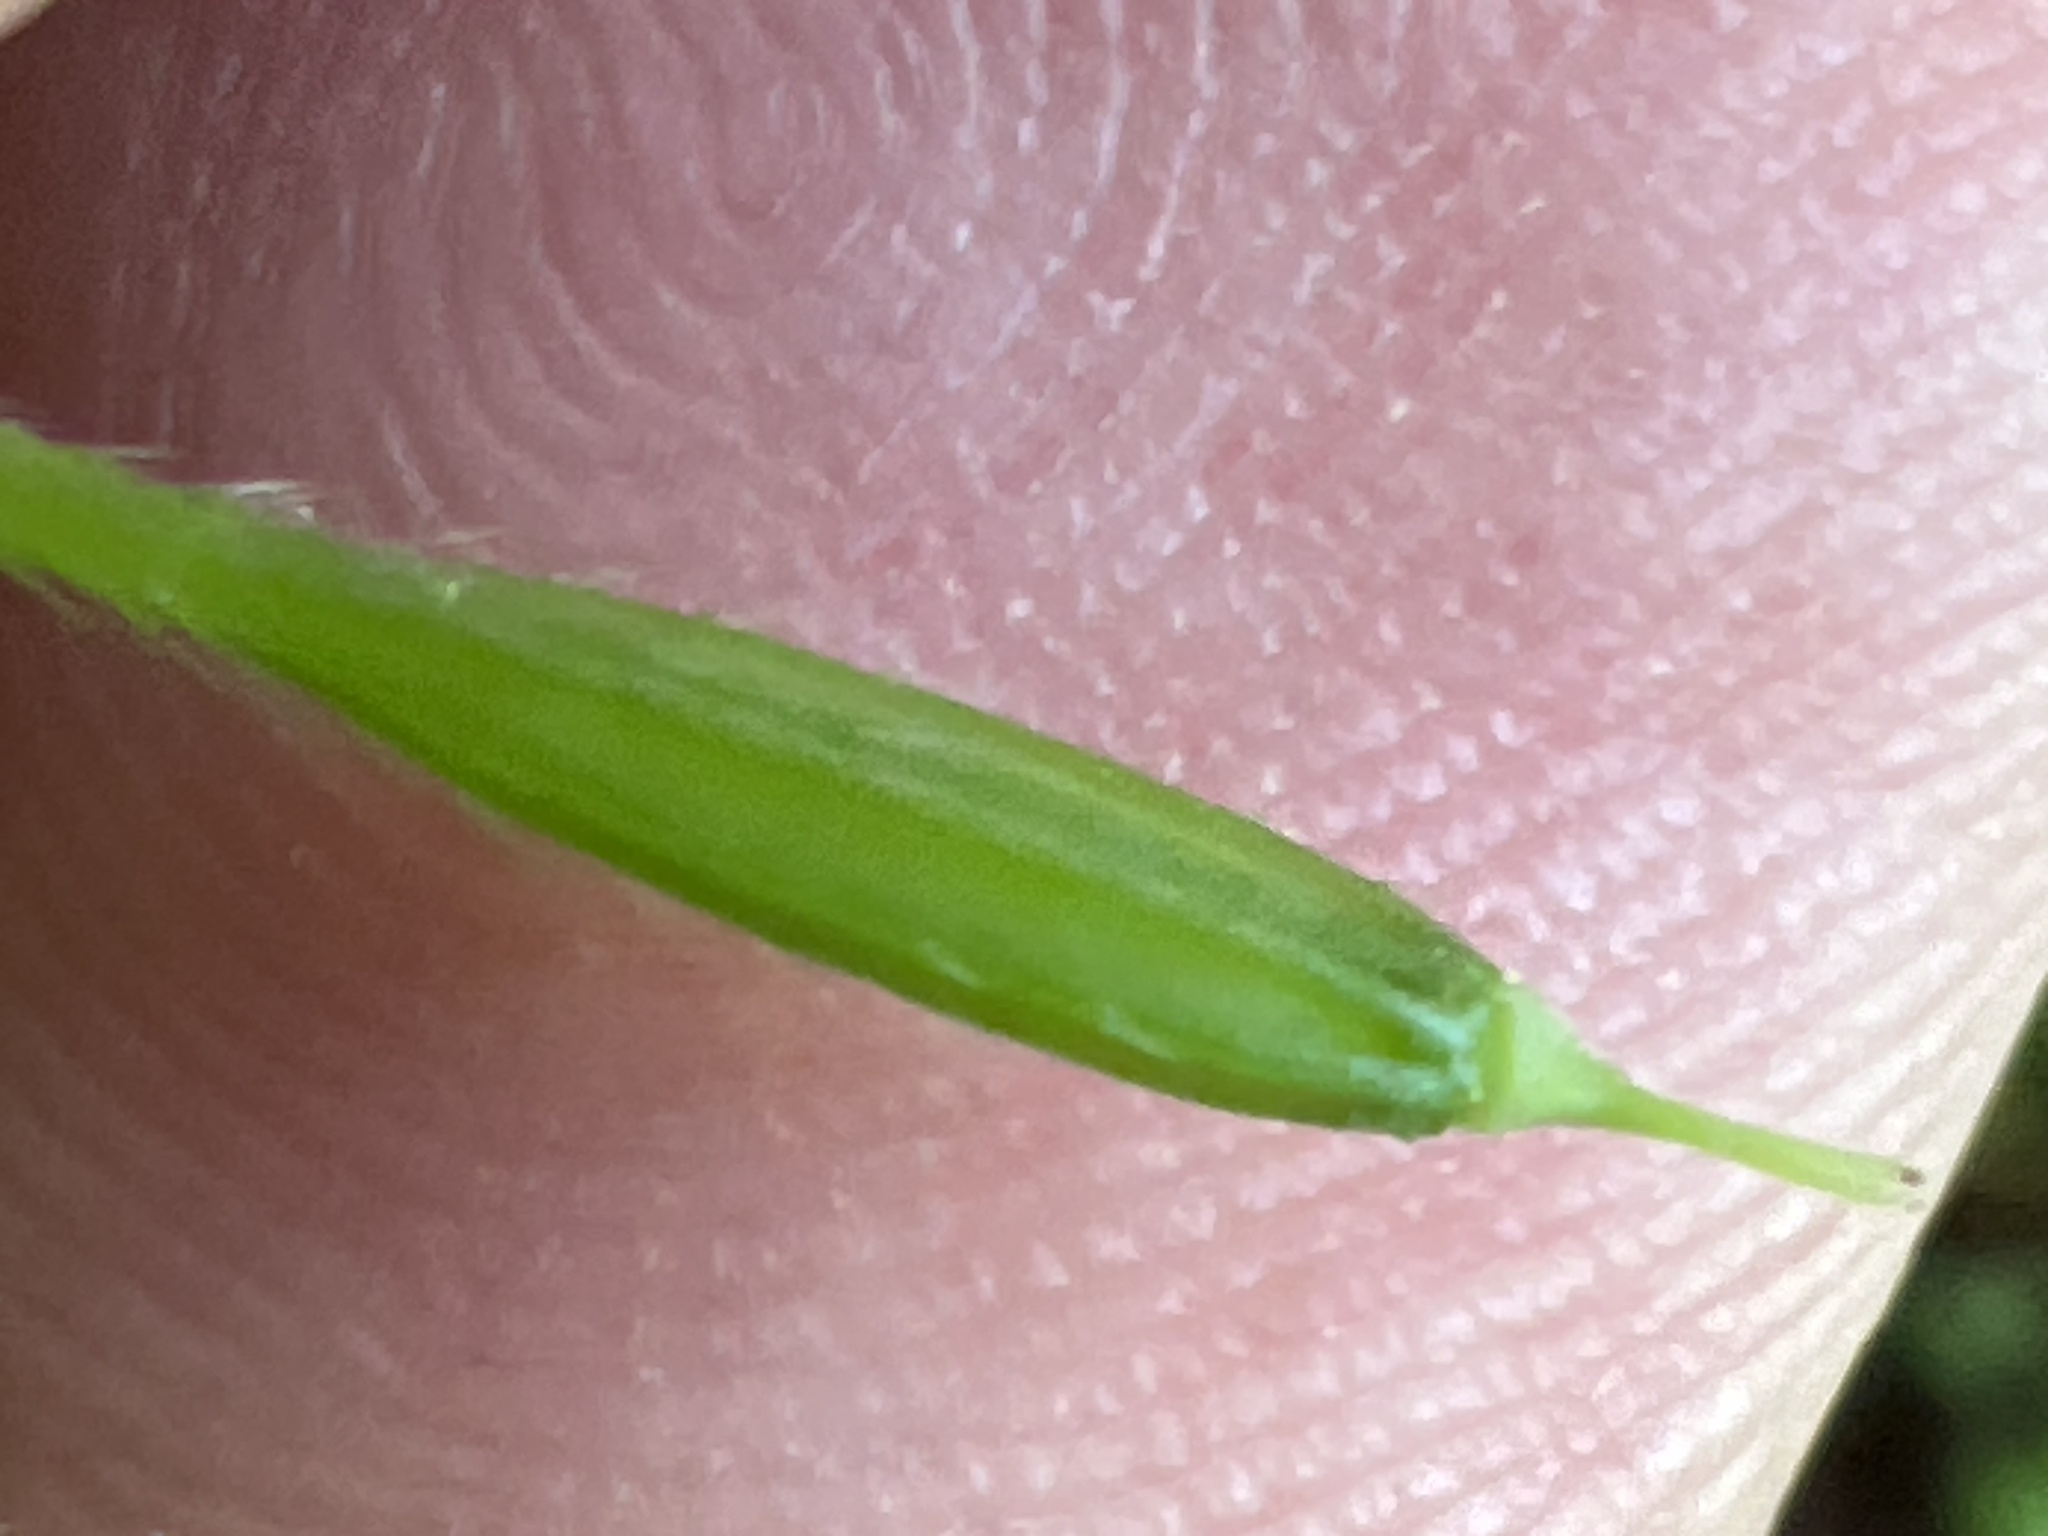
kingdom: Plantae
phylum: Tracheophyta
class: Magnoliopsida
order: Apiales
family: Apiaceae
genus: Osmorhiza
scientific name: Osmorhiza longistylis
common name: Smooth sweet cicely
